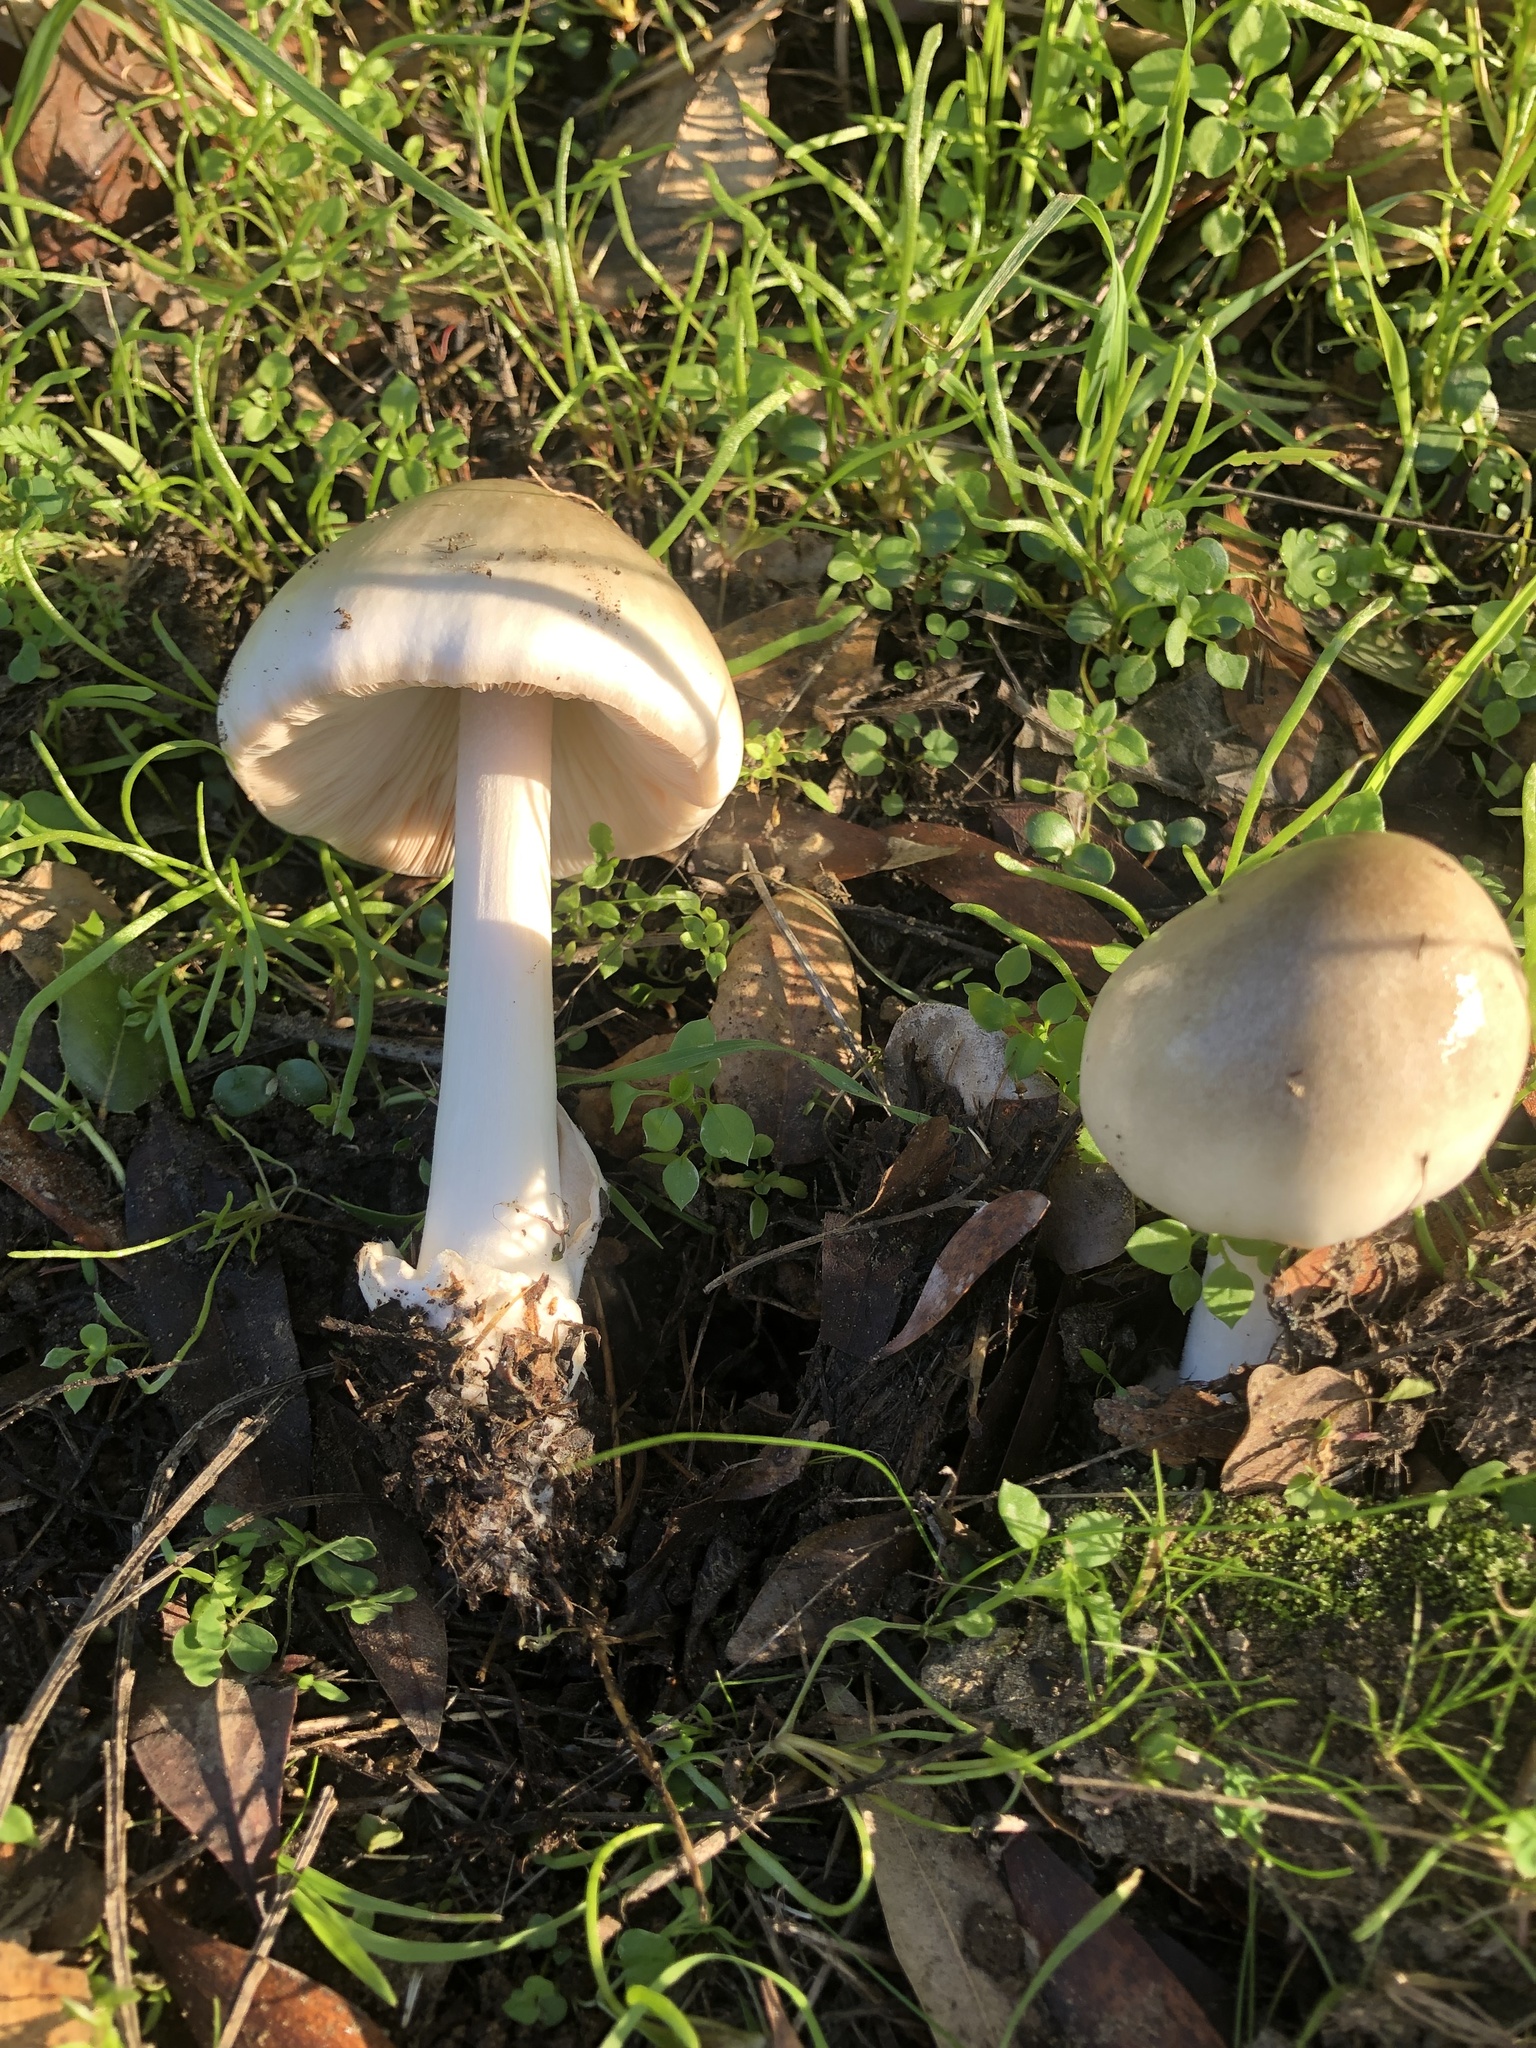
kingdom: Fungi
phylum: Basidiomycota
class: Agaricomycetes
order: Agaricales
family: Pluteaceae
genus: Volvopluteus
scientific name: Volvopluteus gloiocephalus
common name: Stubble rosegill
